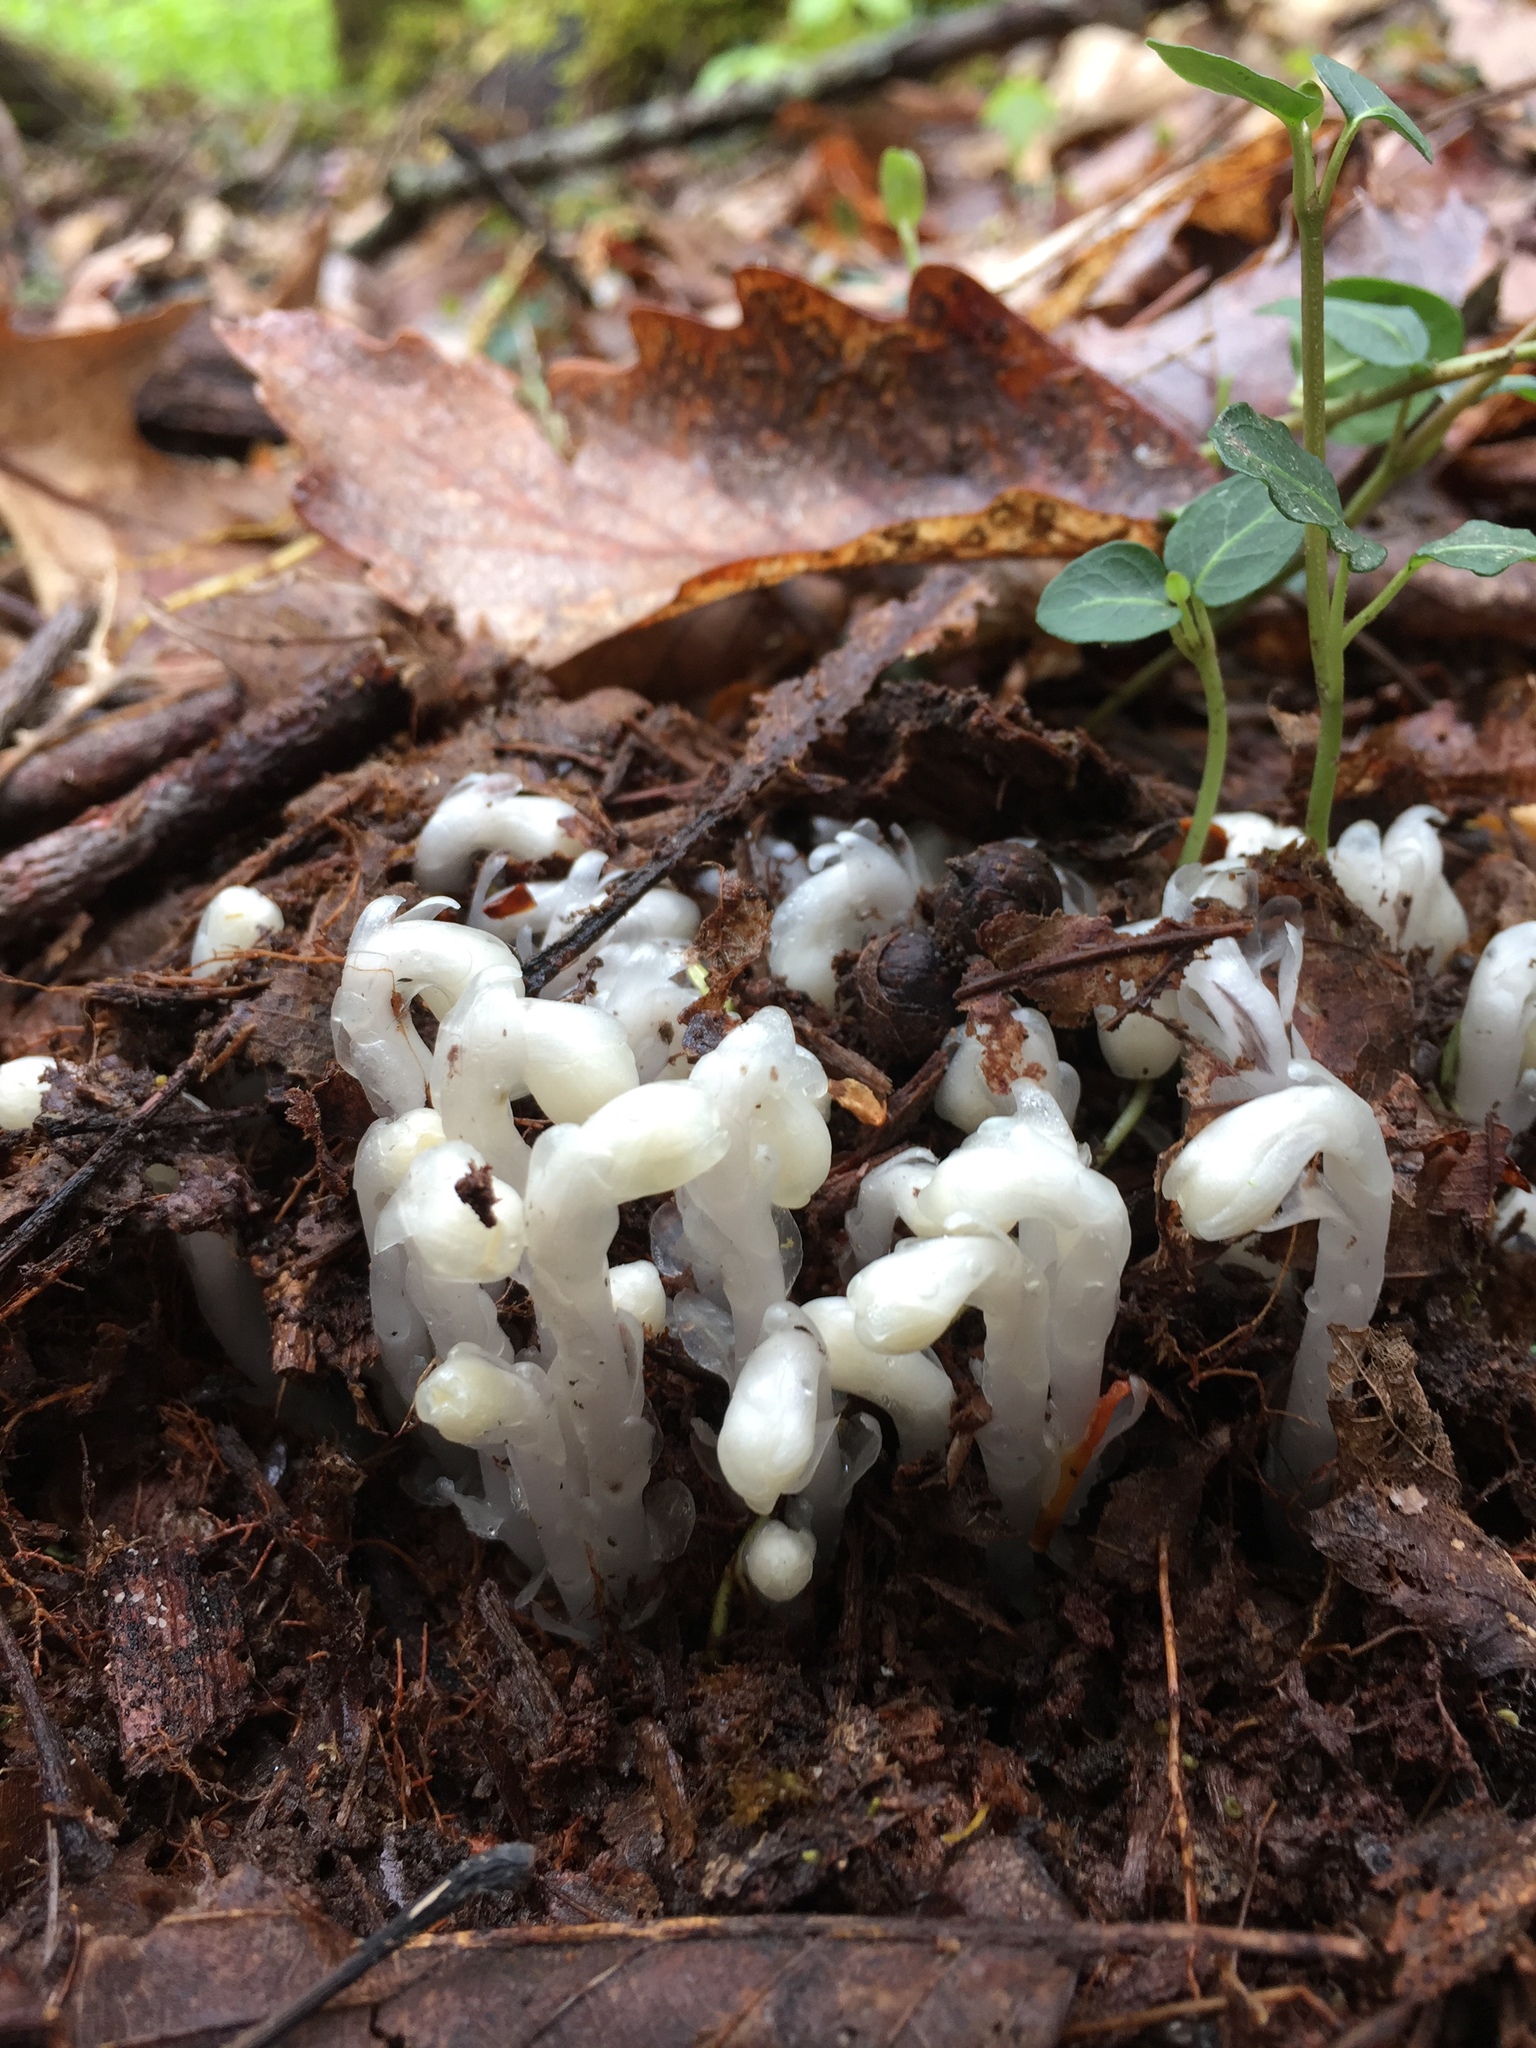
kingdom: Plantae
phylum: Tracheophyta
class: Magnoliopsida
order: Ericales
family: Ericaceae
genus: Monotropa
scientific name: Monotropa uniflora
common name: Convulsion root
